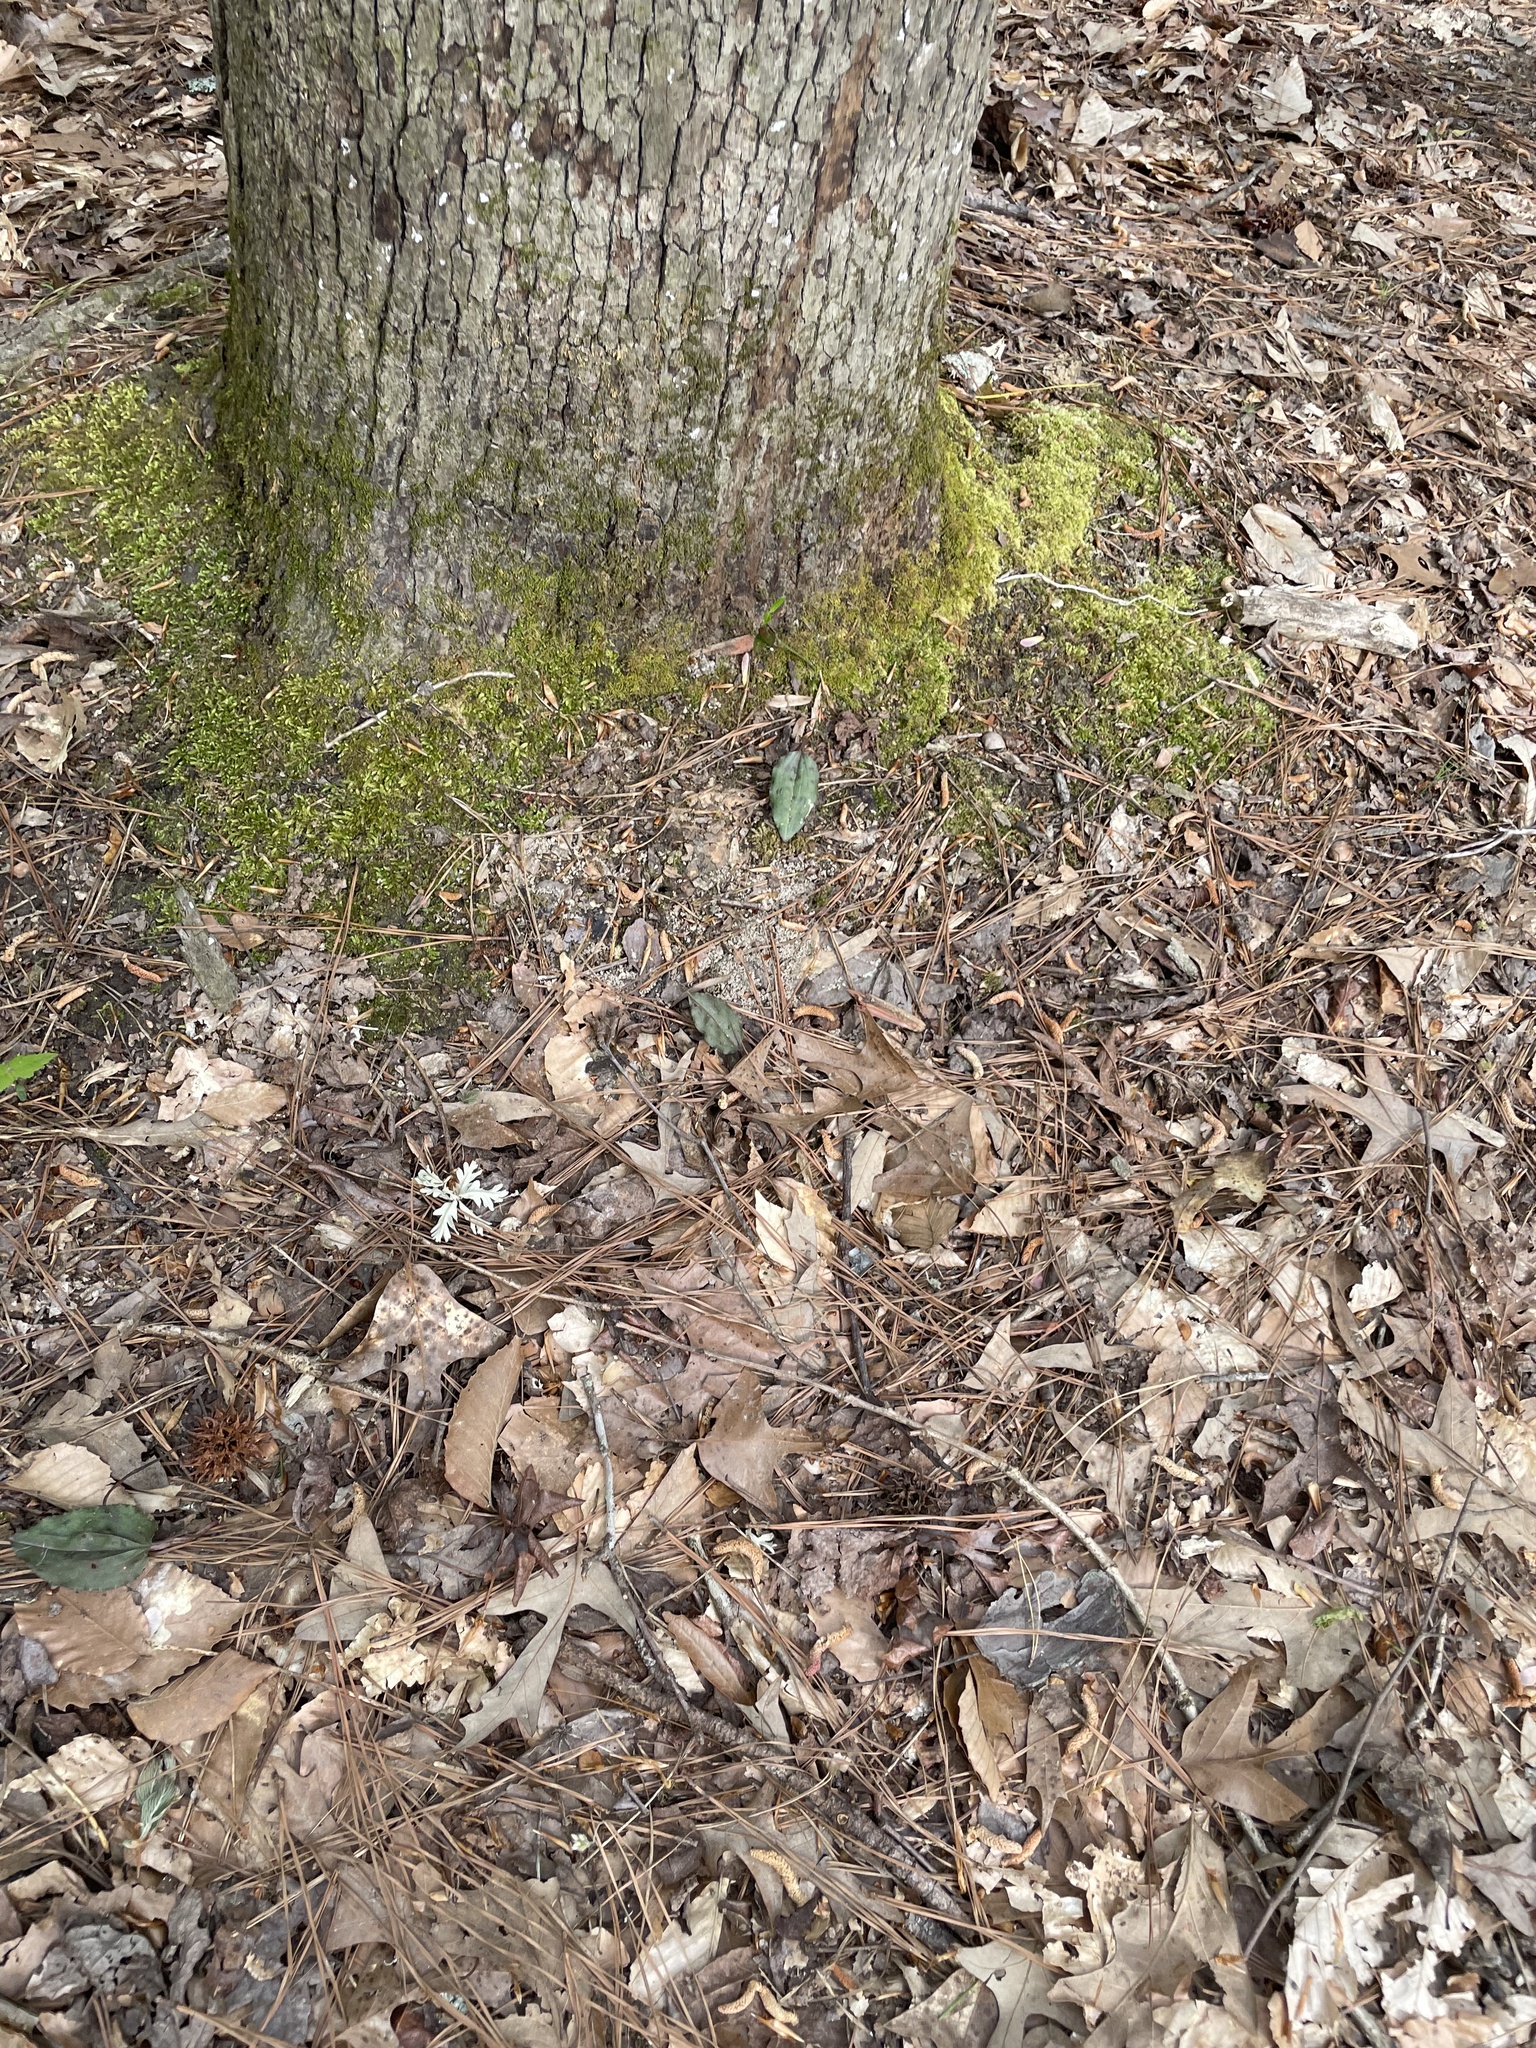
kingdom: Plantae
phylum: Tracheophyta
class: Liliopsida
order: Asparagales
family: Orchidaceae
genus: Tipularia
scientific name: Tipularia discolor
